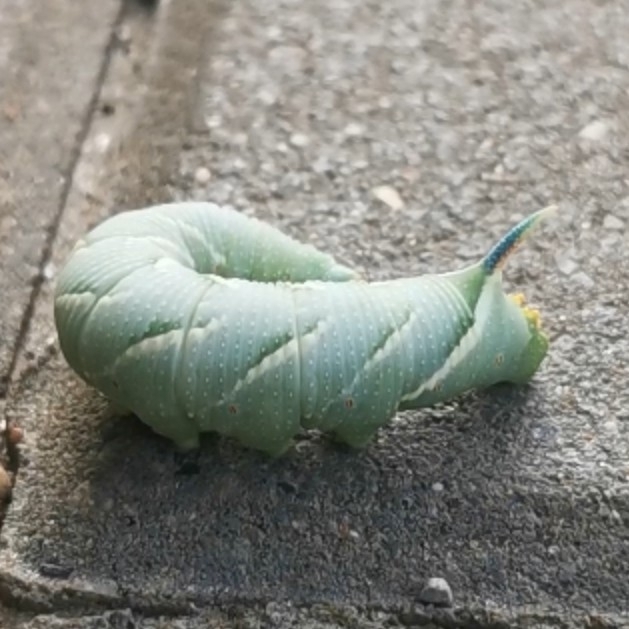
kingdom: Animalia
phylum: Arthropoda
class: Insecta
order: Lepidoptera
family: Sphingidae
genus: Mimas
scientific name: Mimas tiliae
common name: Lime hawk-moth
